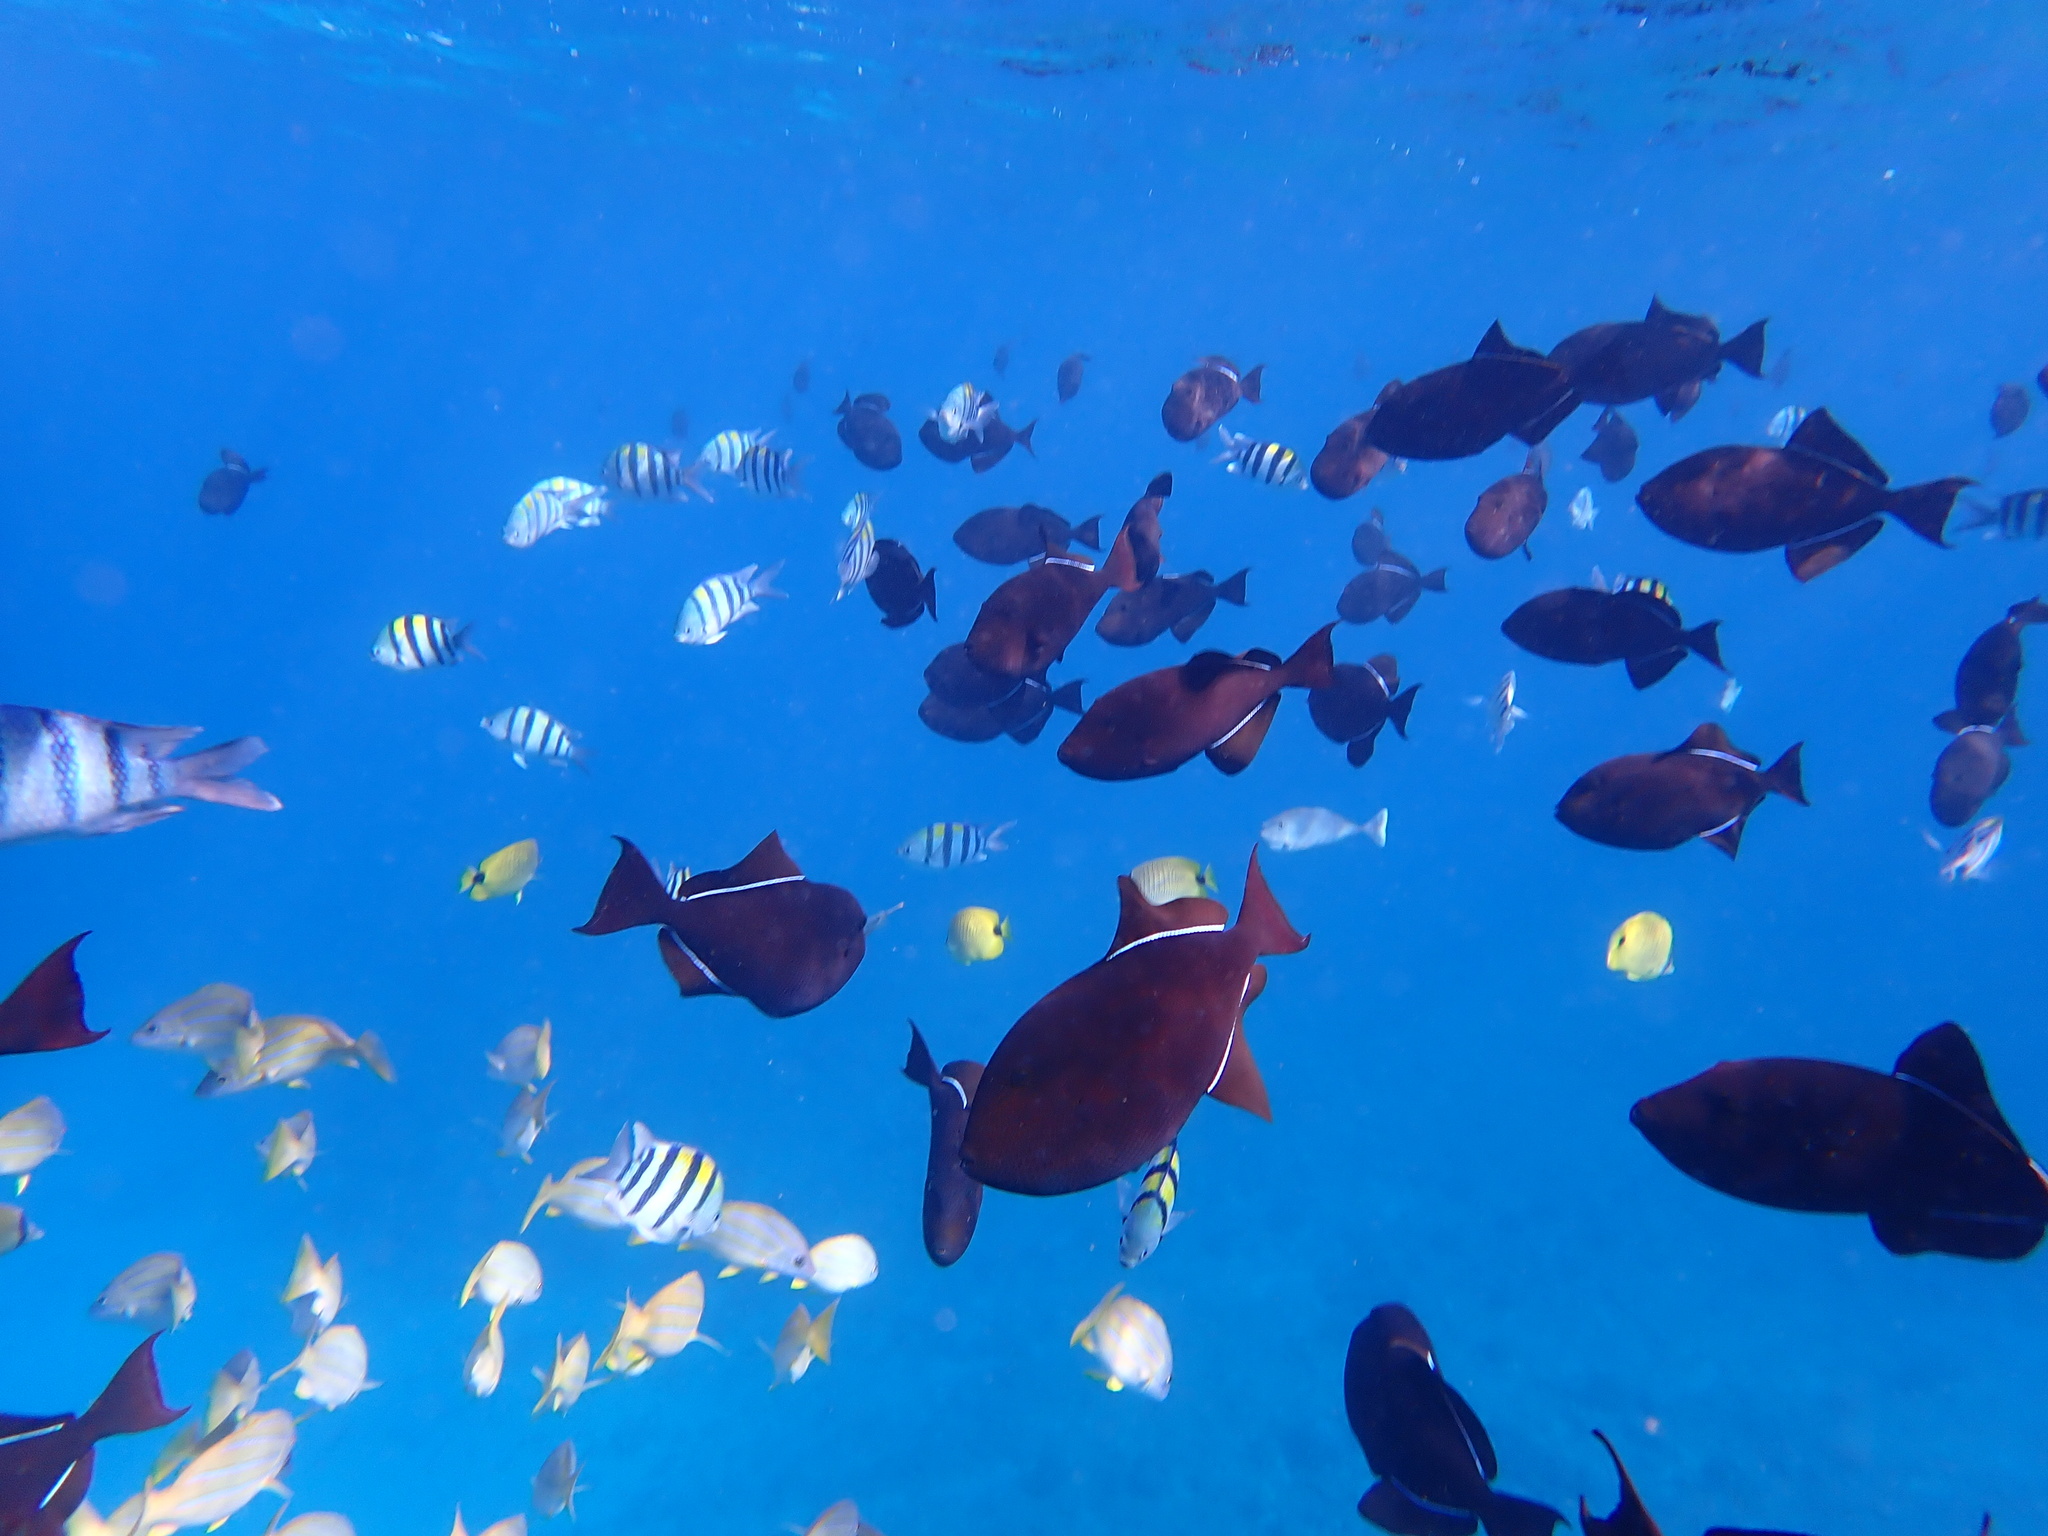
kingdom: Animalia
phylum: Chordata
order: Perciformes
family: Acanthuridae
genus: Naso
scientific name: Naso unicornis
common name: Bluespine unicornfish
